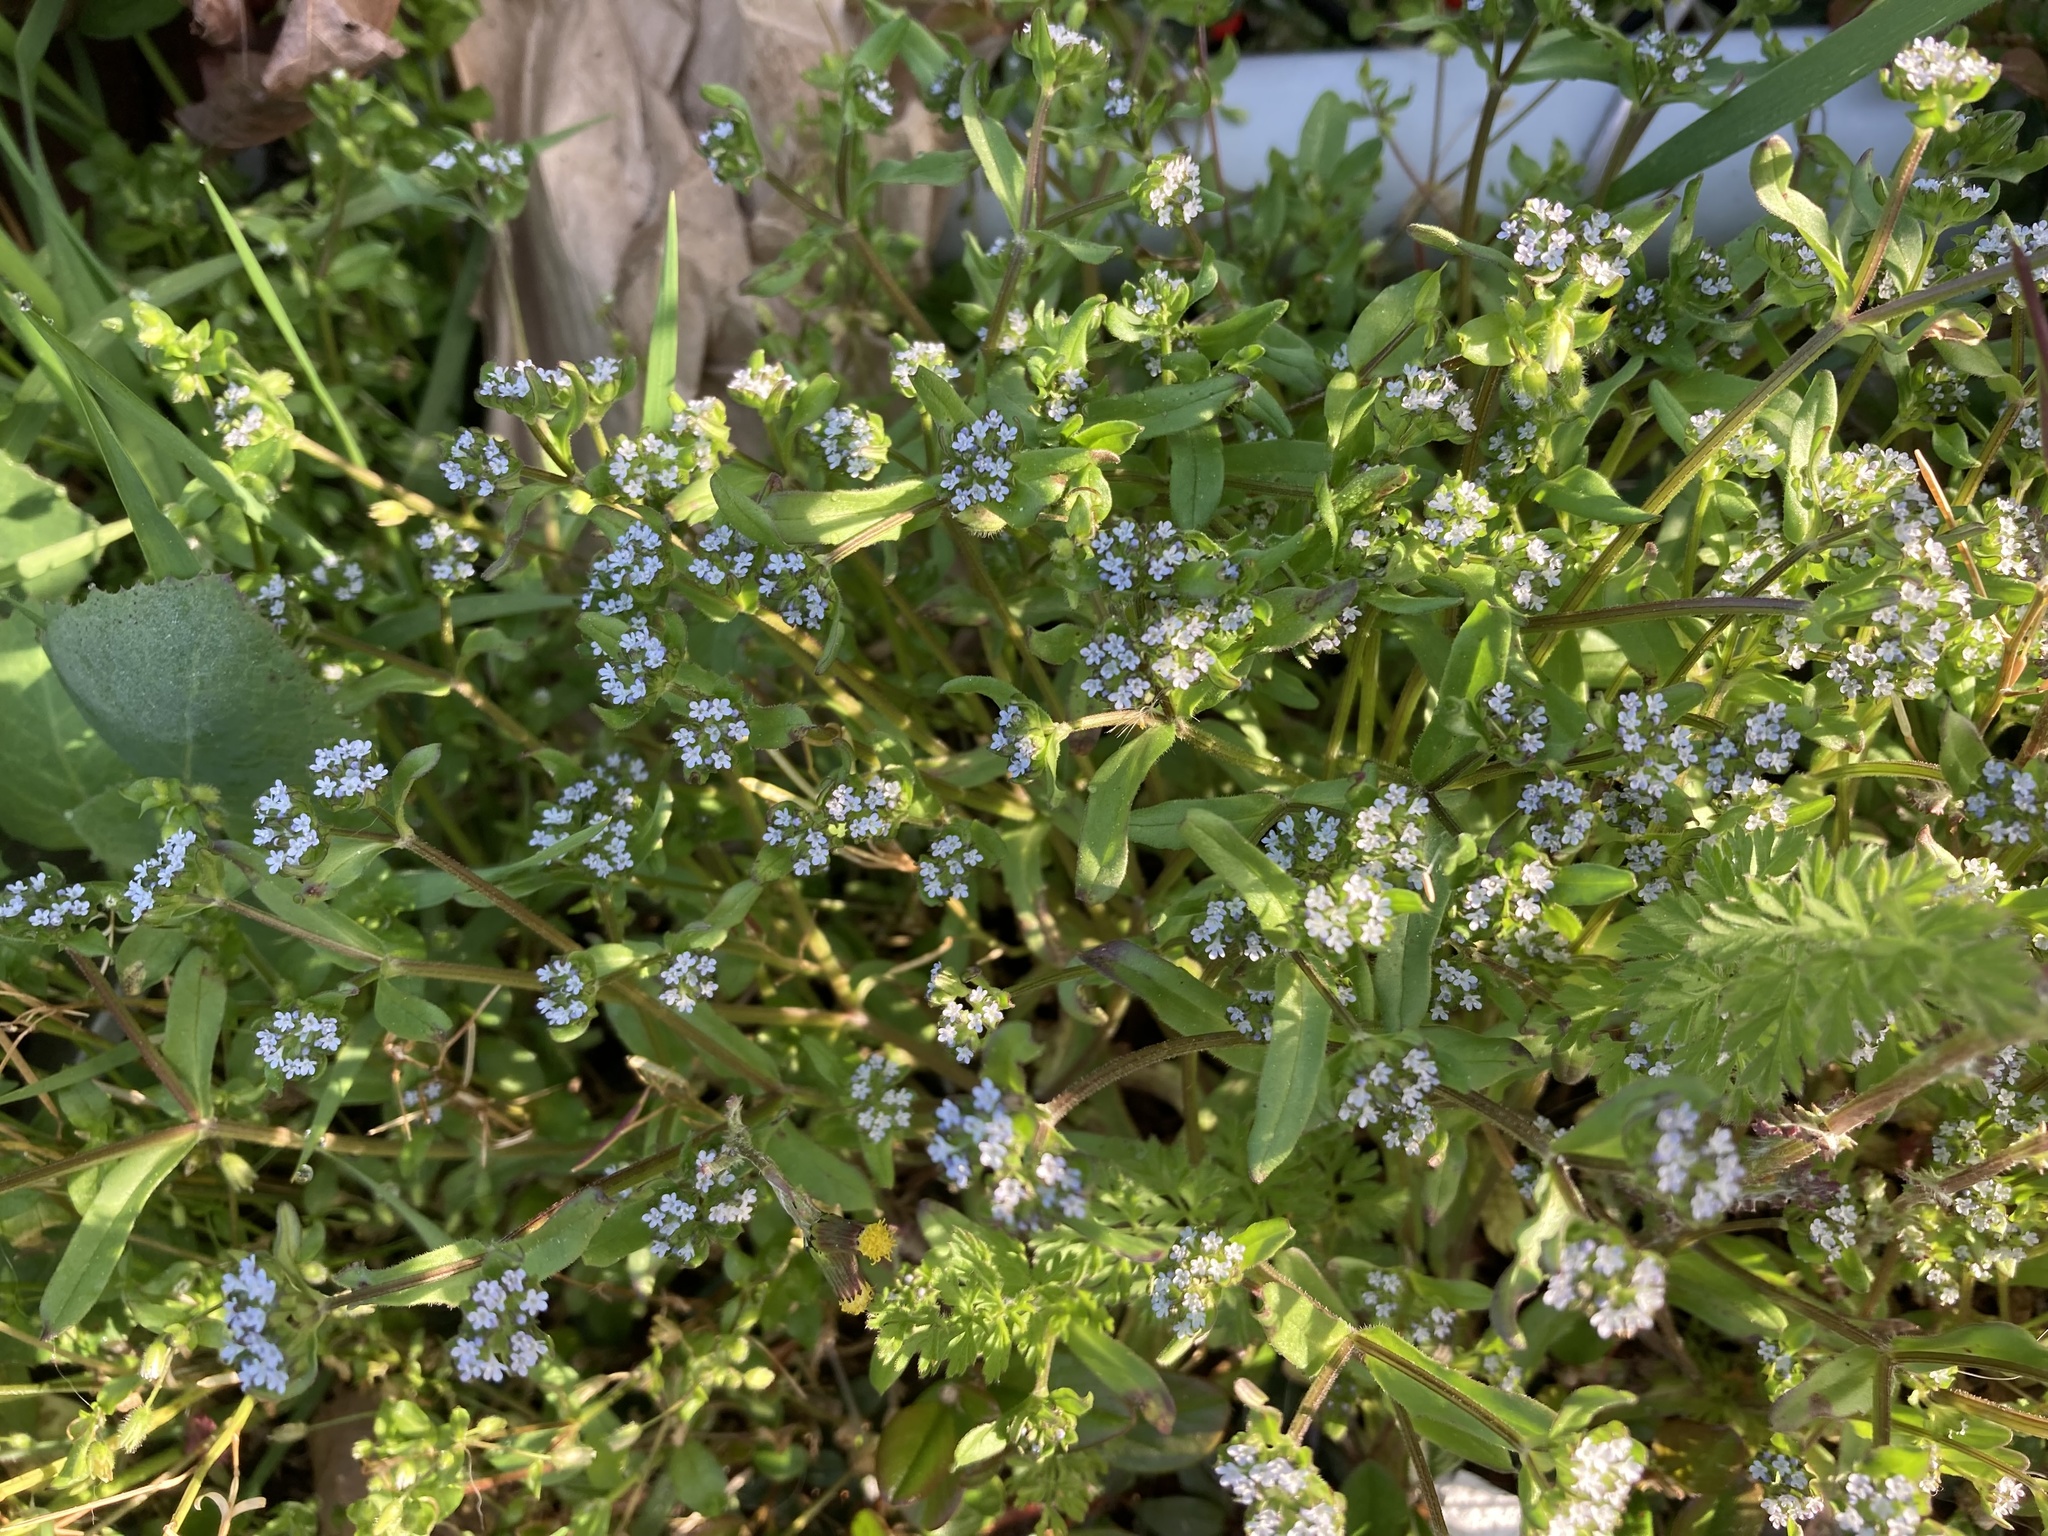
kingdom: Plantae
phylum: Tracheophyta
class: Magnoliopsida
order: Dipsacales
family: Caprifoliaceae
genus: Valerianella
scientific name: Valerianella locusta
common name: Common cornsalad
